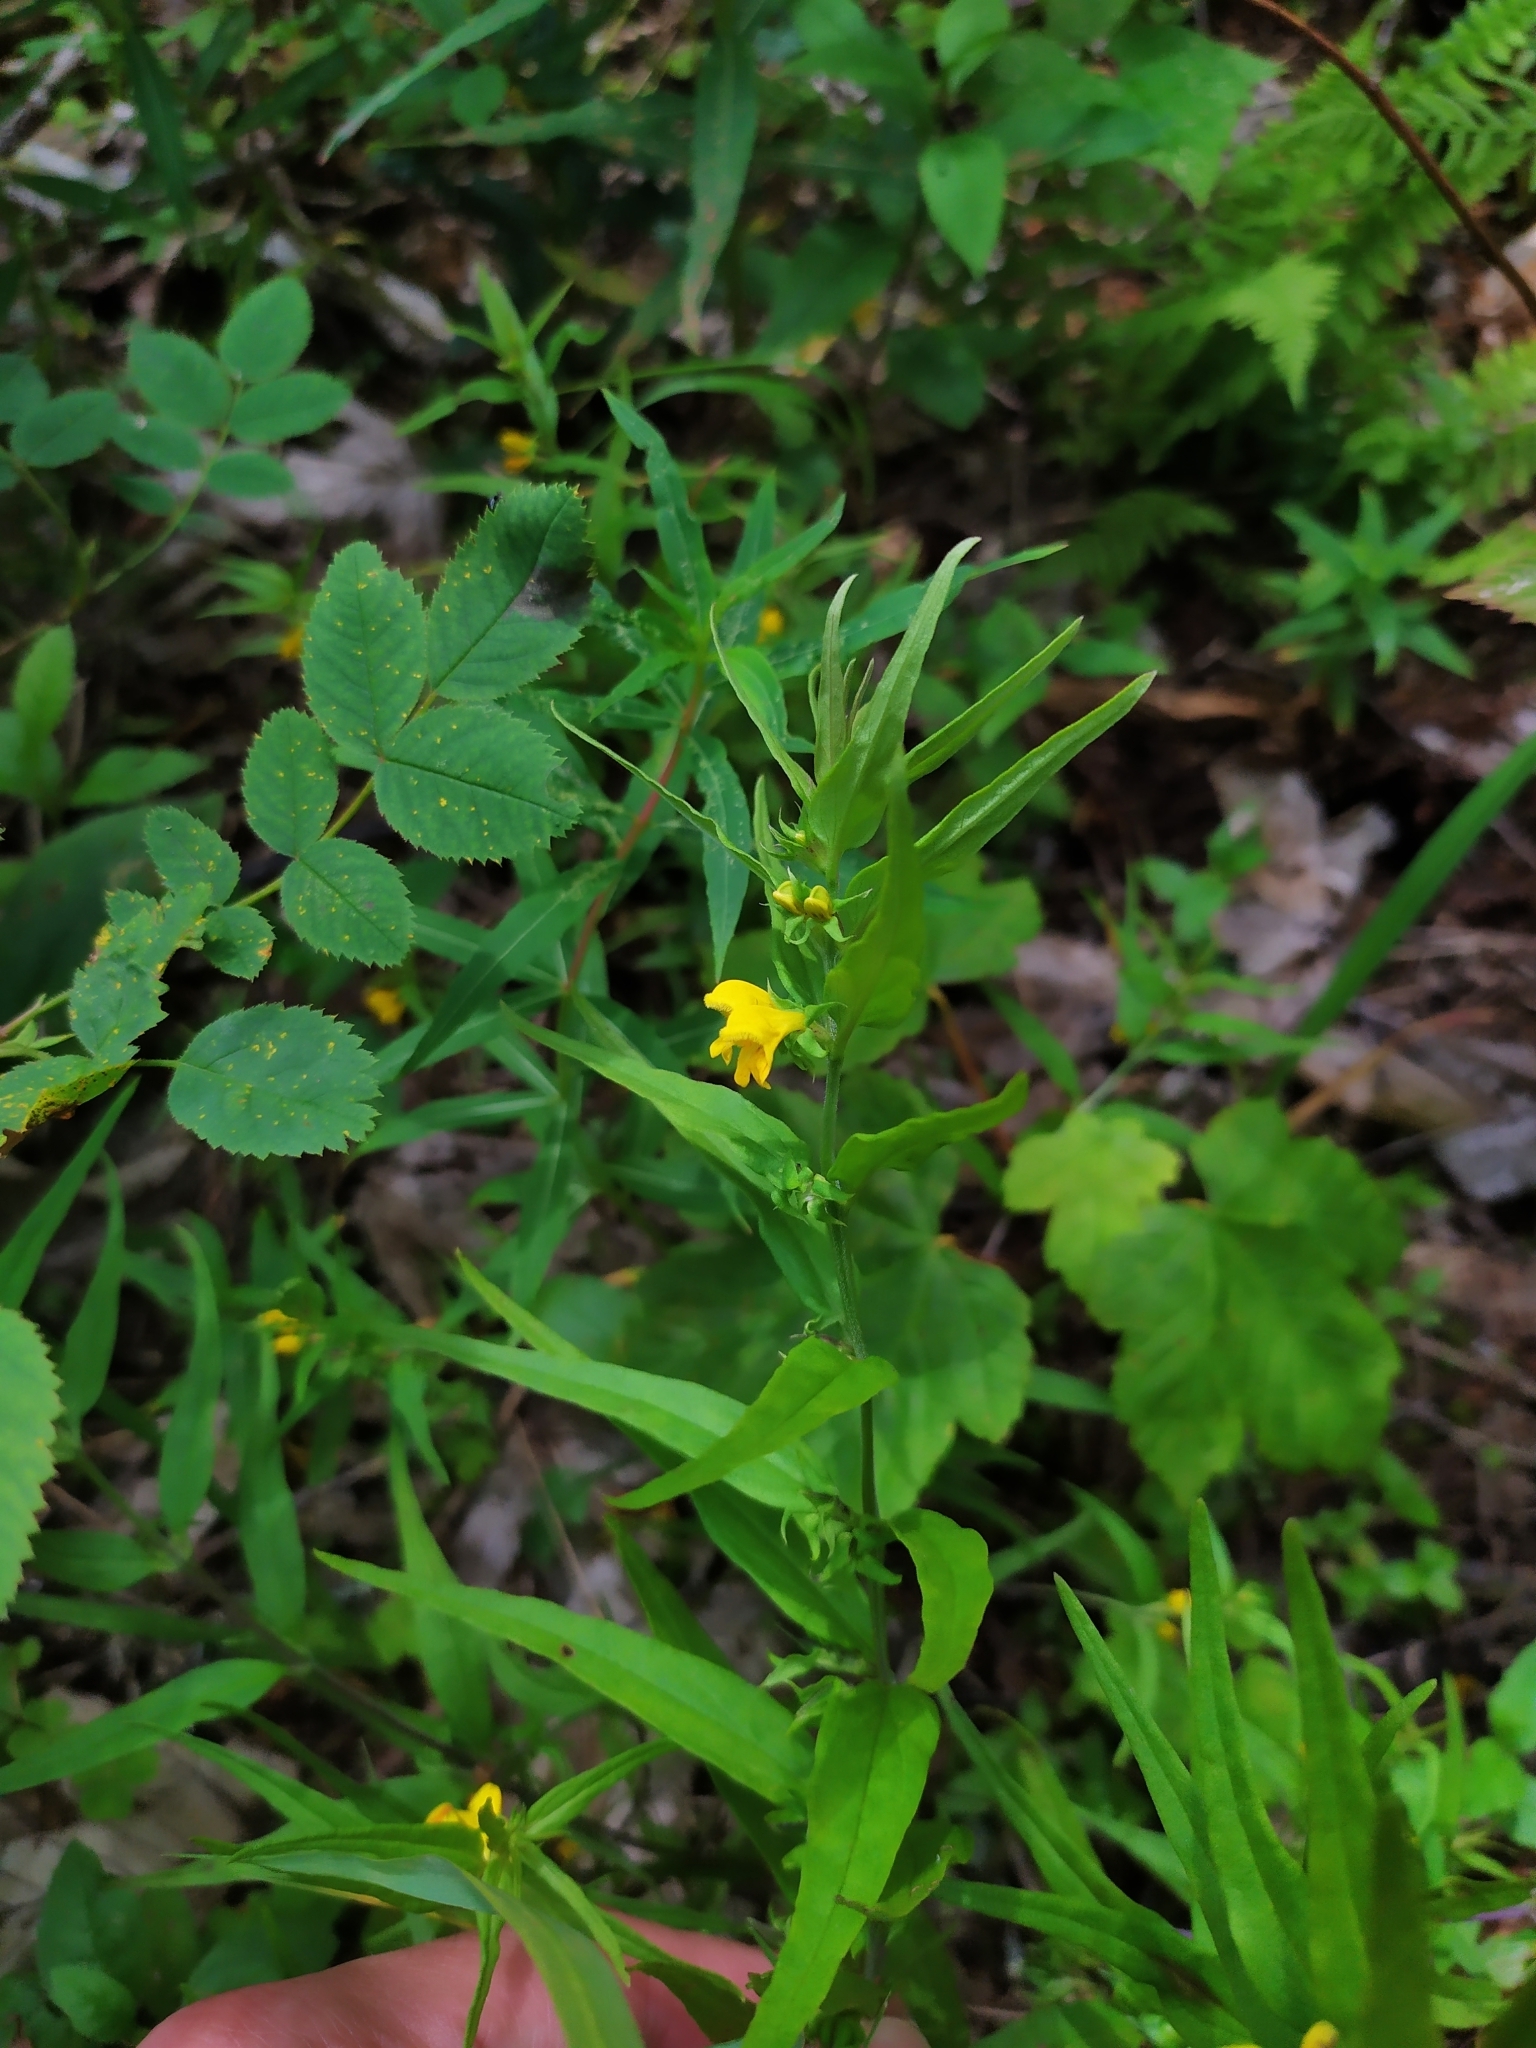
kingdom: Plantae
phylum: Tracheophyta
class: Magnoliopsida
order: Lamiales
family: Orobanchaceae
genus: Melampyrum
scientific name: Melampyrum sylvaticum
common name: Small cow-wheat
